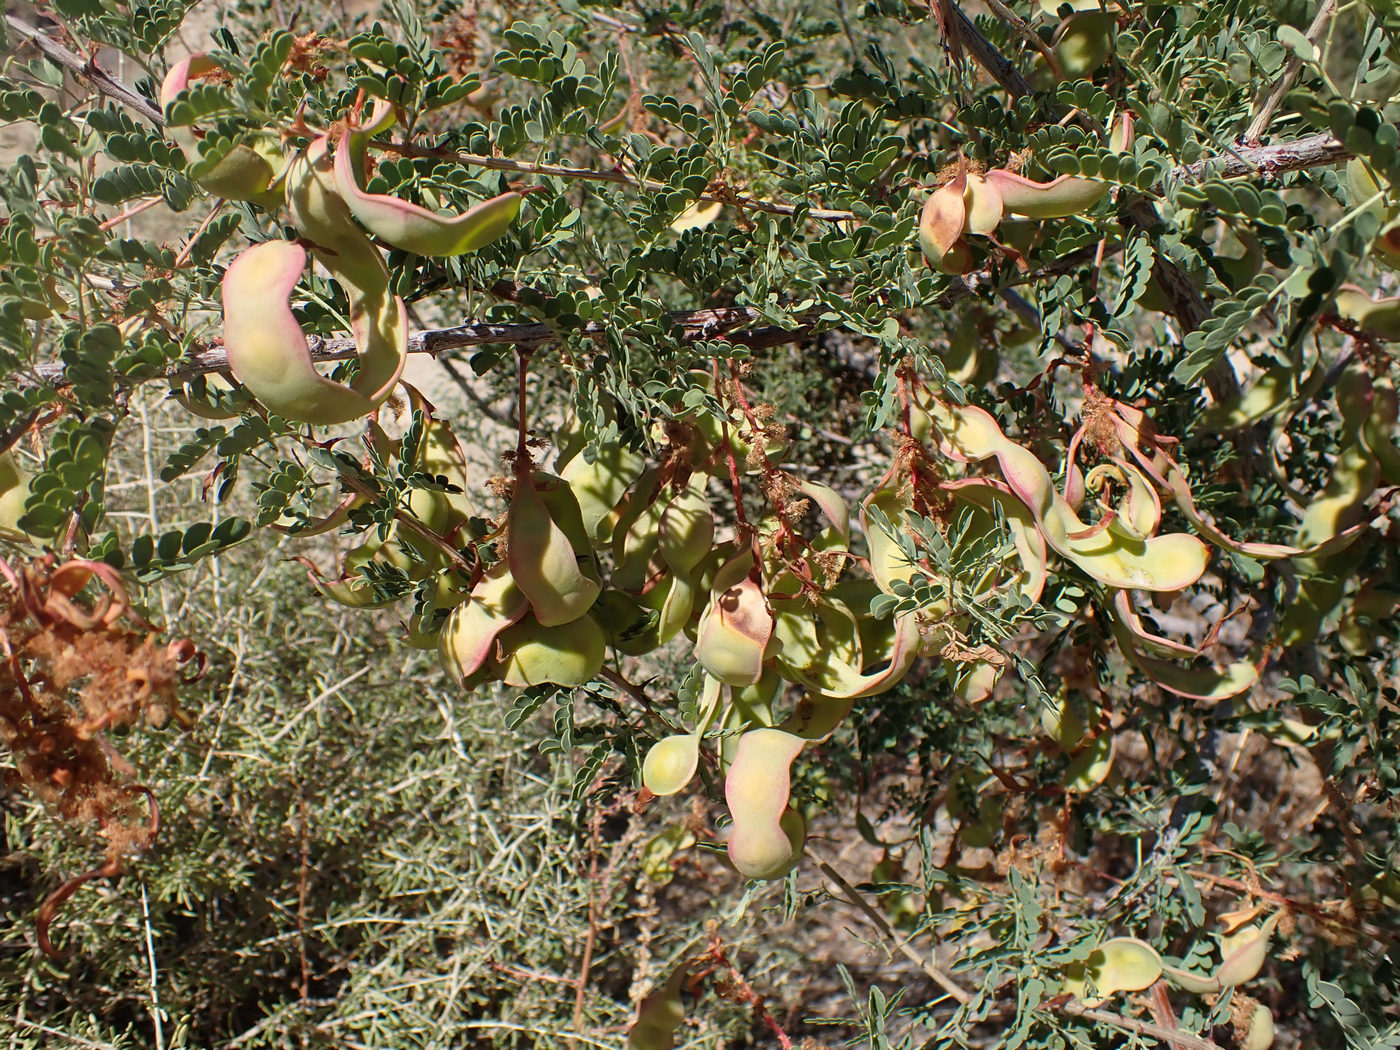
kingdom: Plantae
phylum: Tracheophyta
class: Magnoliopsida
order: Fabales
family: Fabaceae
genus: Senegalia
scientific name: Senegalia greggii
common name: Texas-mimosa
